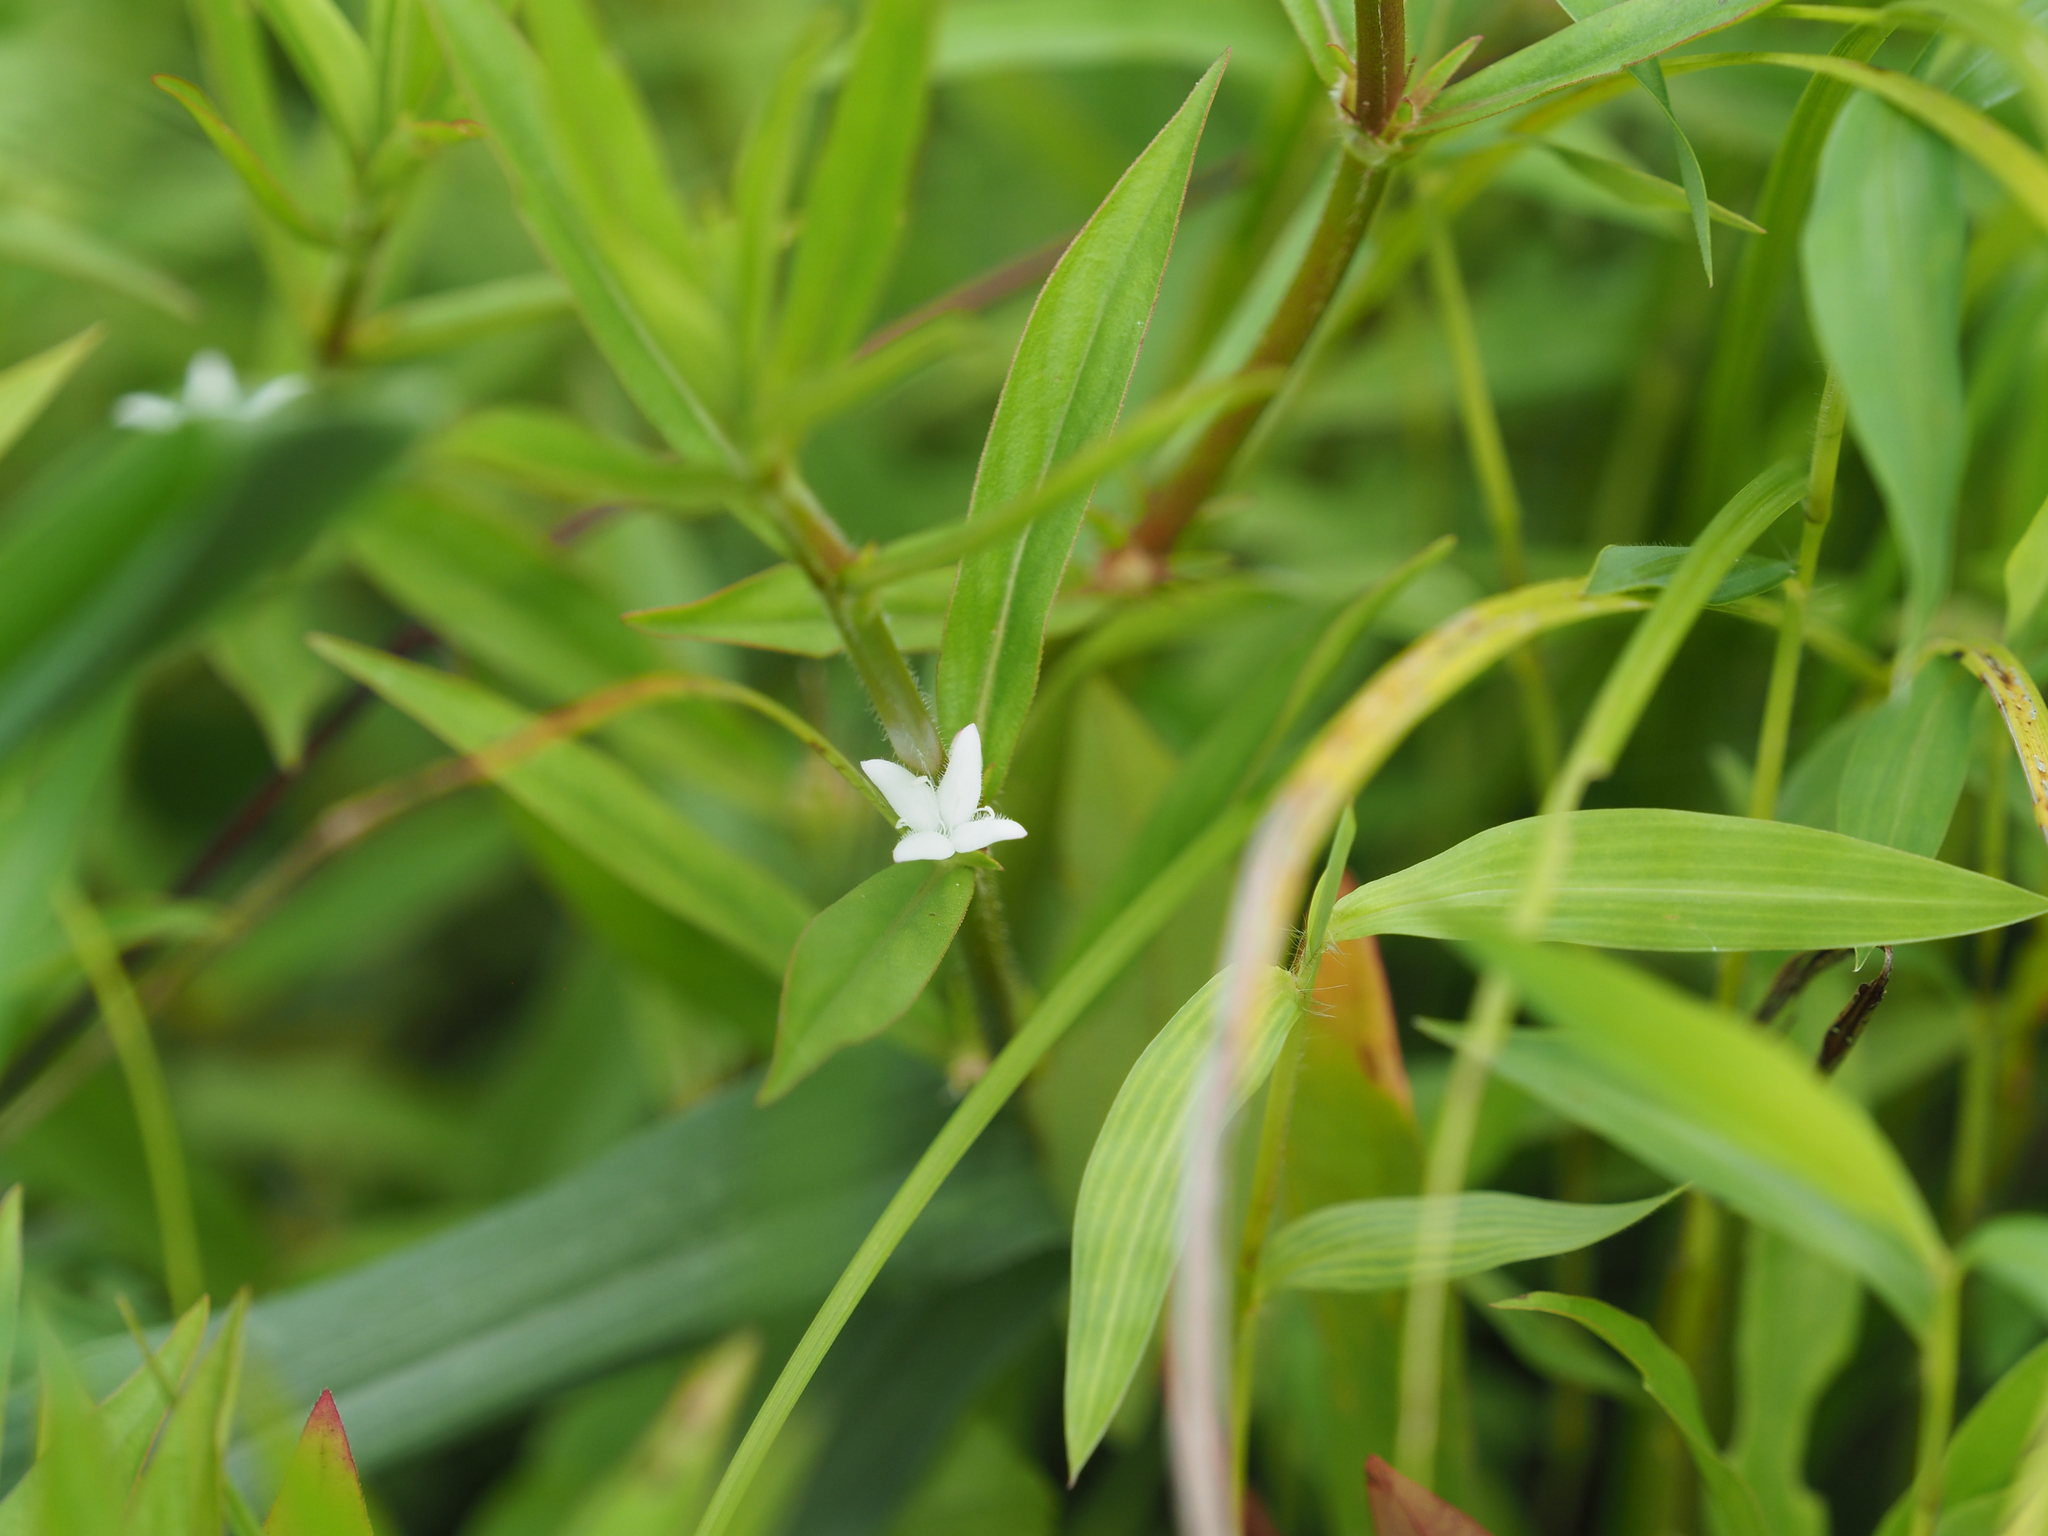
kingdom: Plantae
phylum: Tracheophyta
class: Magnoliopsida
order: Gentianales
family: Rubiaceae
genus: Diodia
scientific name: Diodia virginiana
